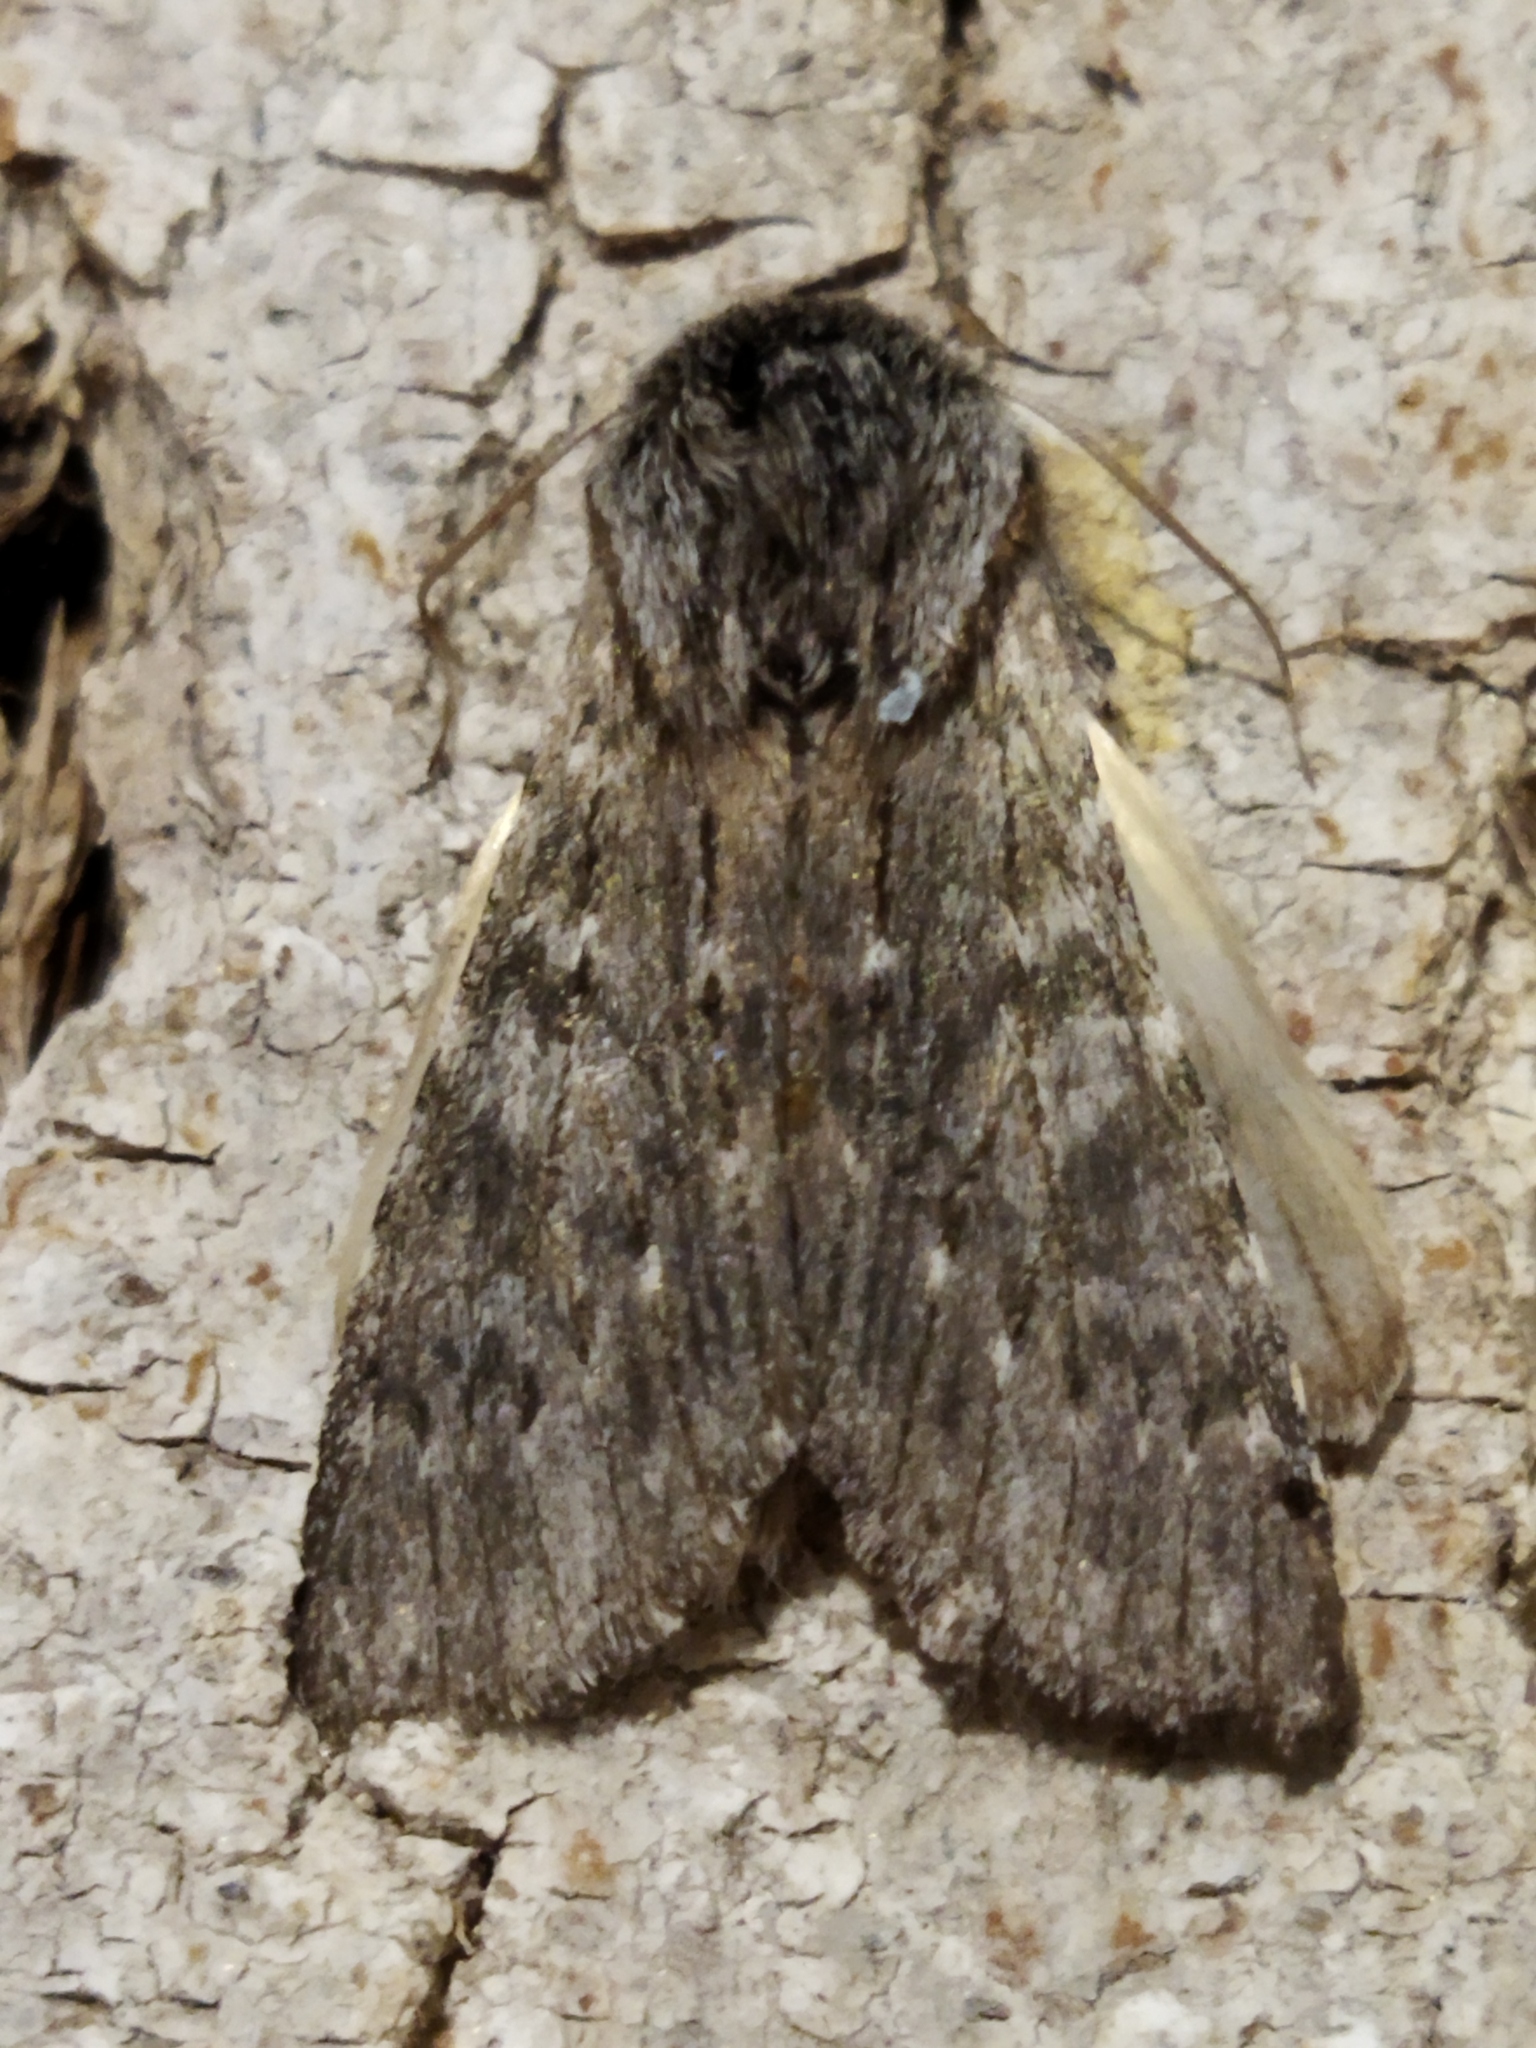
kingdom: Animalia
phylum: Arthropoda
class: Insecta
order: Lepidoptera
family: Notodontidae
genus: Dicranura
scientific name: Dicranura ulmi
